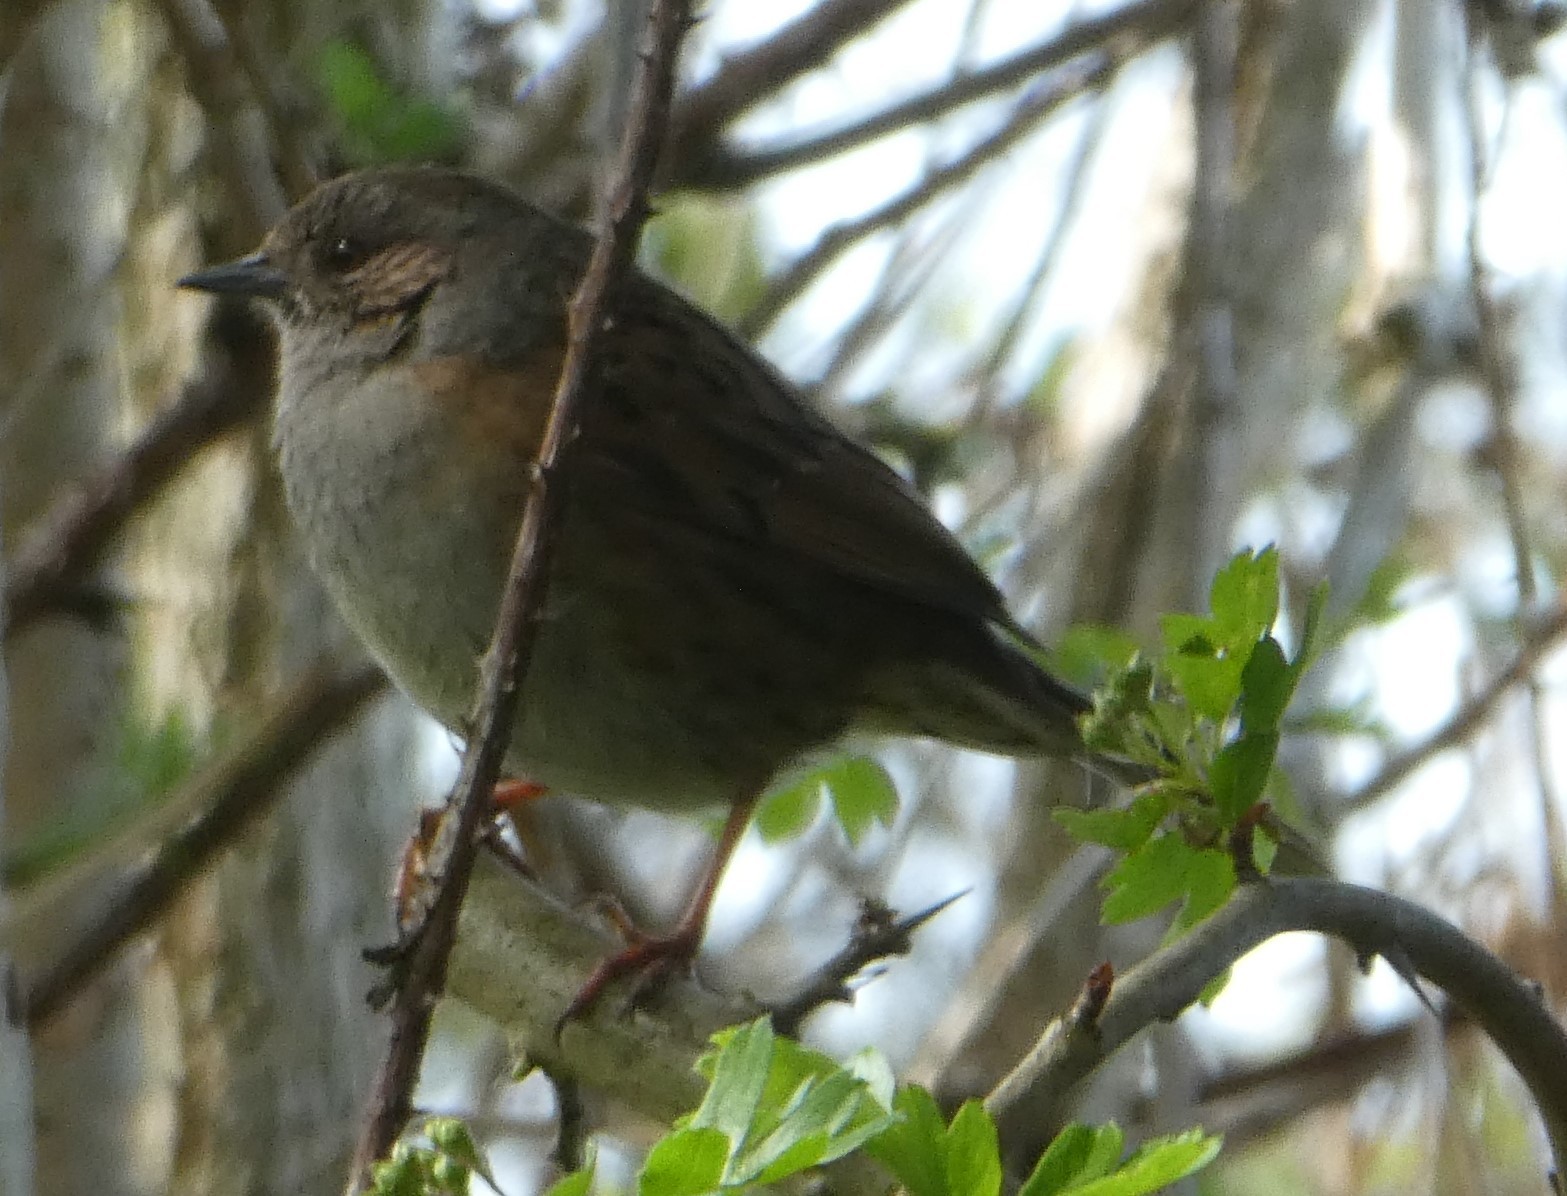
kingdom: Animalia
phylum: Chordata
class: Aves
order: Passeriformes
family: Prunellidae
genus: Prunella
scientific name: Prunella modularis
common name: Dunnock
